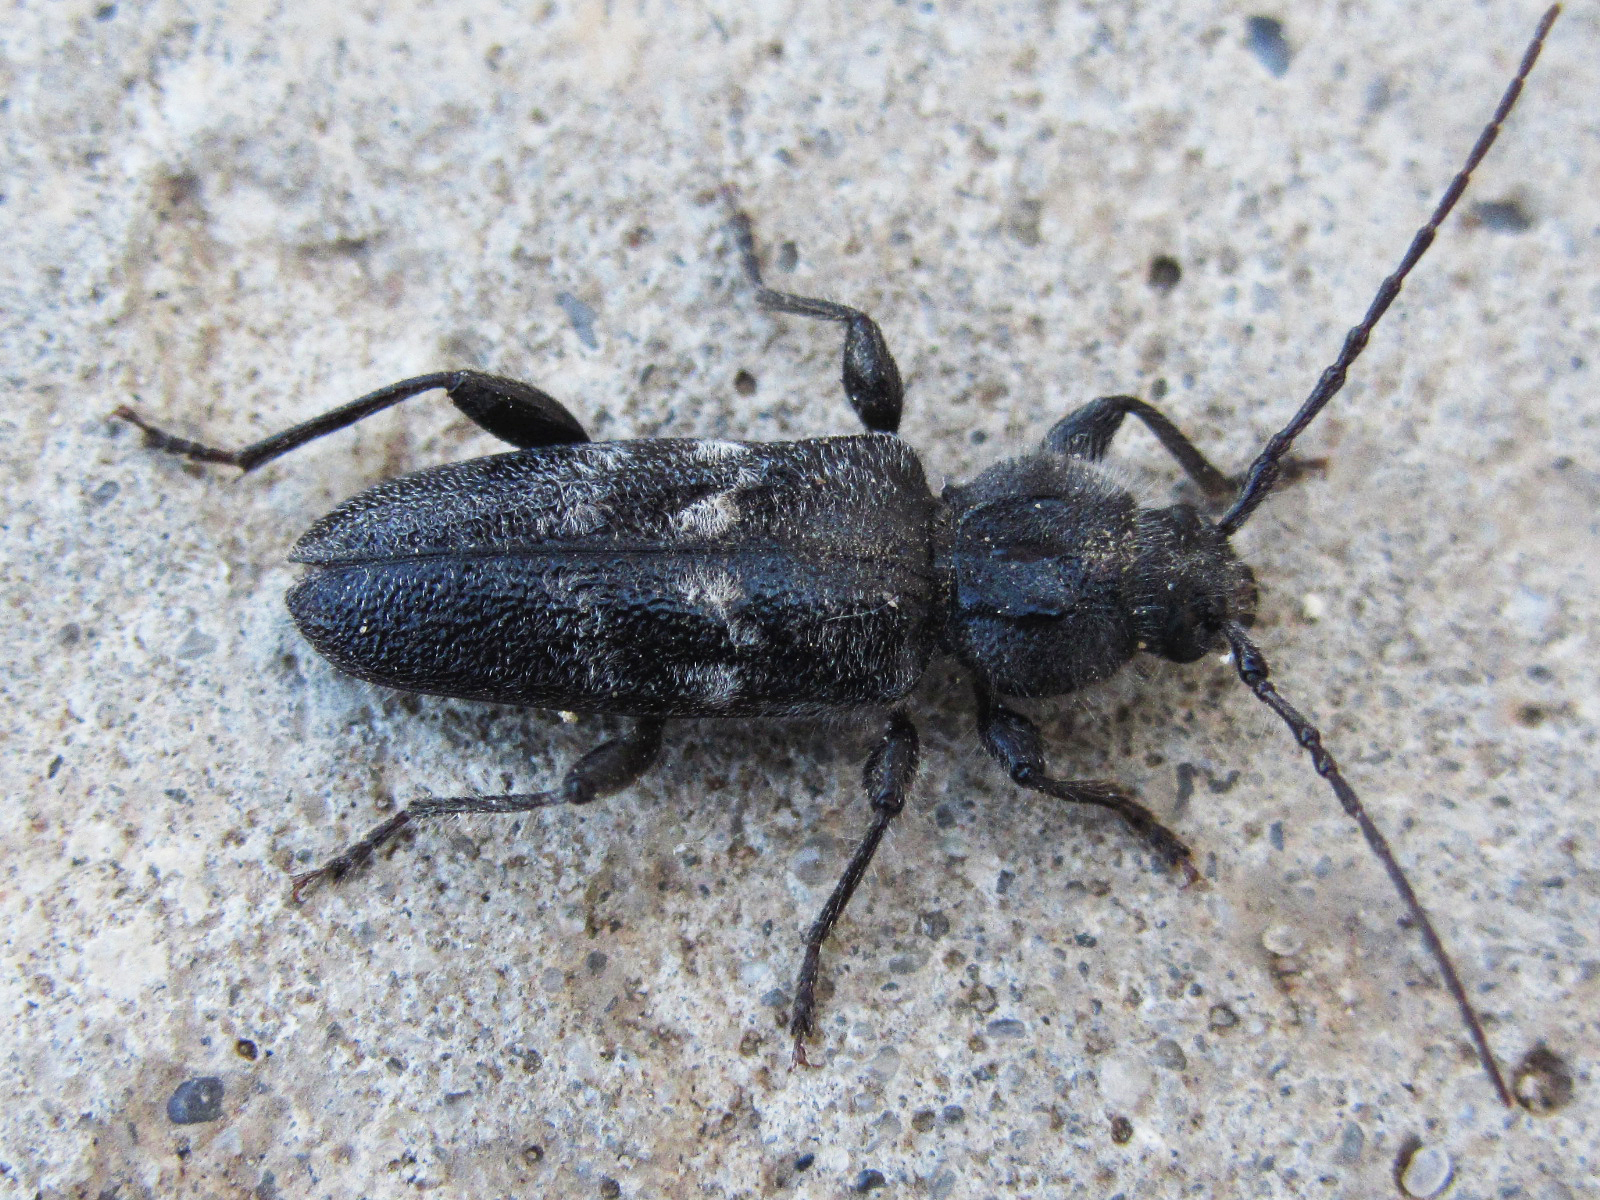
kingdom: Animalia
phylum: Arthropoda
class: Insecta
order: Coleoptera
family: Cerambycidae
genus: Hylotrupes
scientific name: Hylotrupes bajulus
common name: Old house borer
